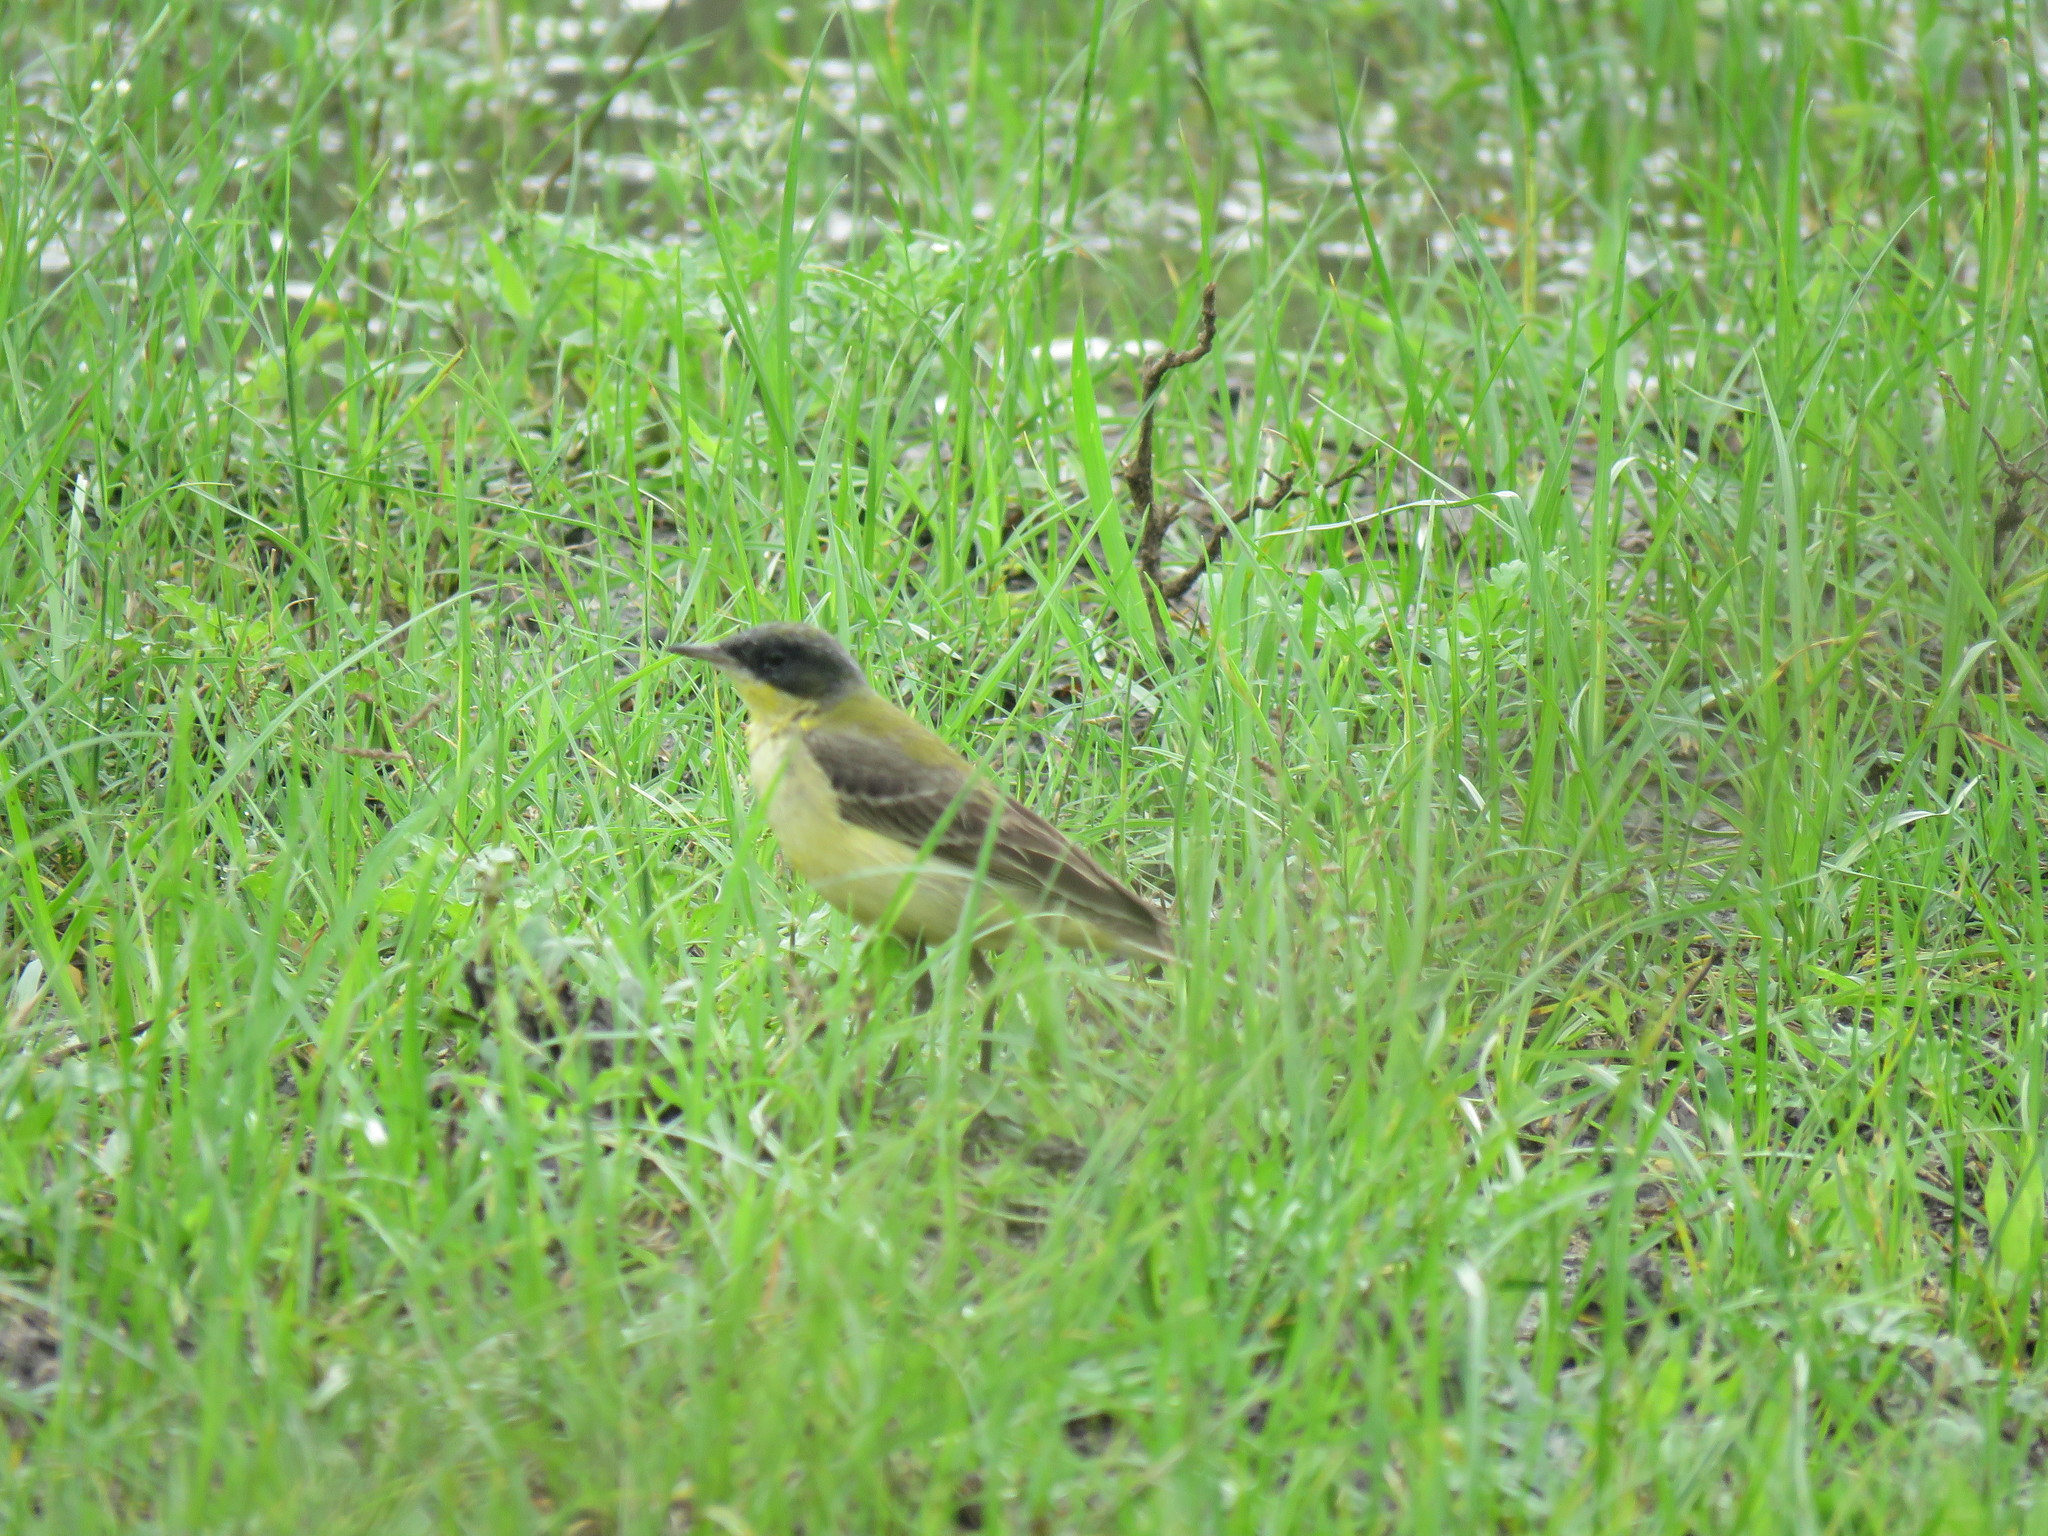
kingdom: Animalia
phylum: Chordata
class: Aves
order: Passeriformes
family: Motacillidae
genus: Motacilla
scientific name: Motacilla flava
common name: Western yellow wagtail
